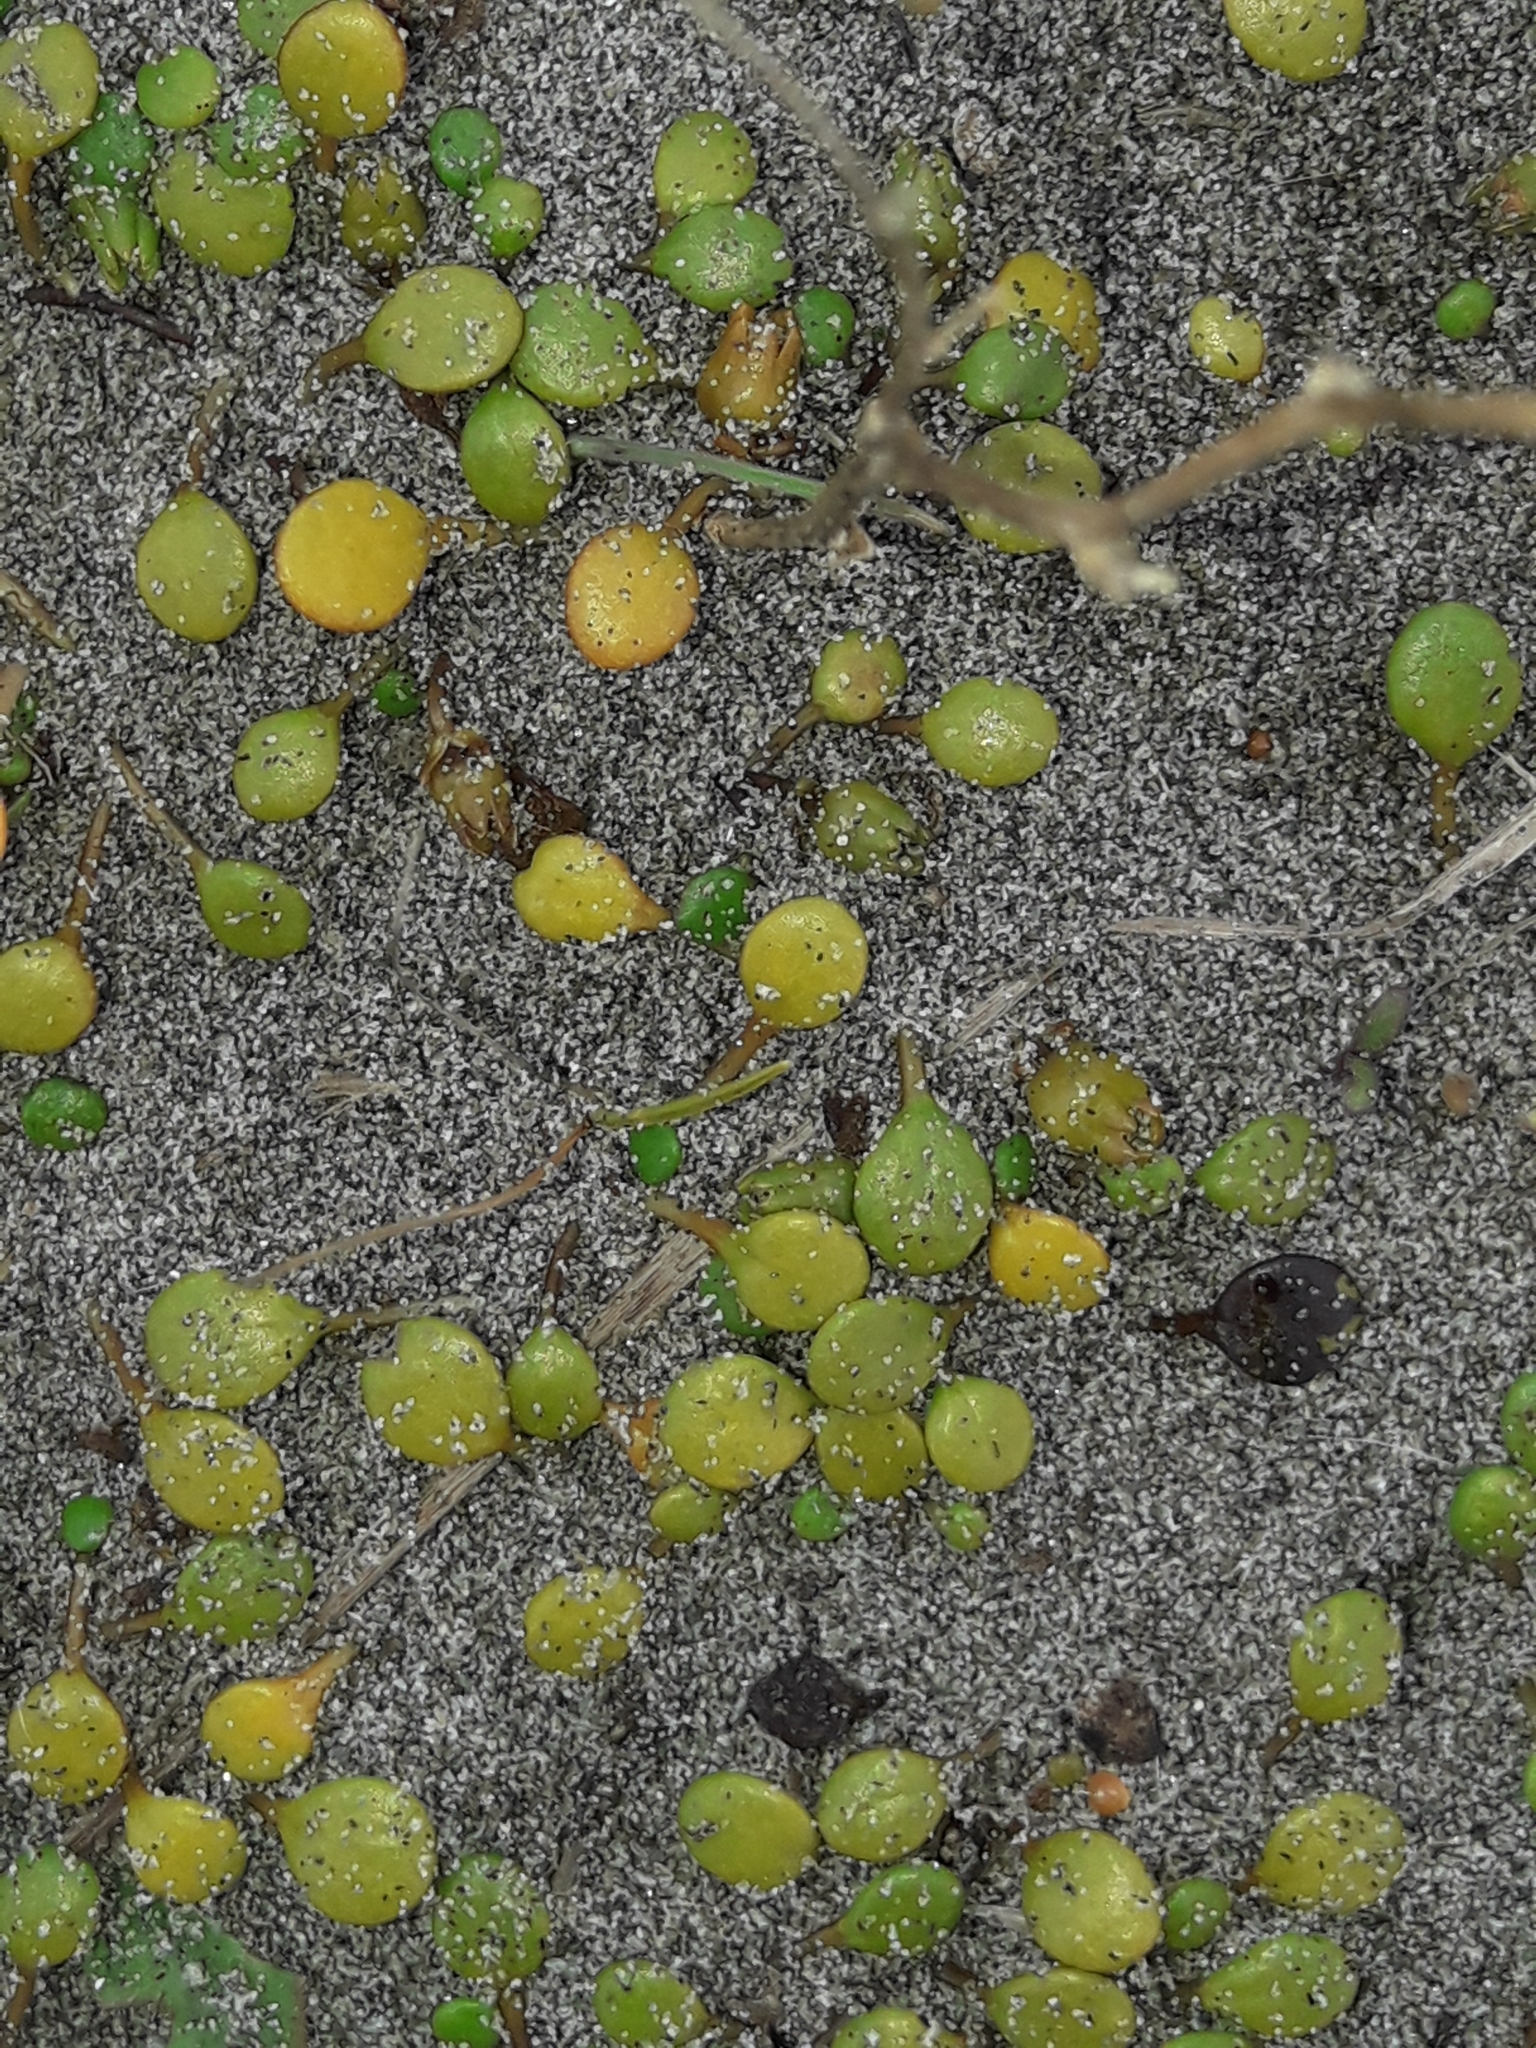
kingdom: Plantae
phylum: Tracheophyta
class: Magnoliopsida
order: Asterales
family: Goodeniaceae
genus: Goodenia
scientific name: Goodenia heenanii
